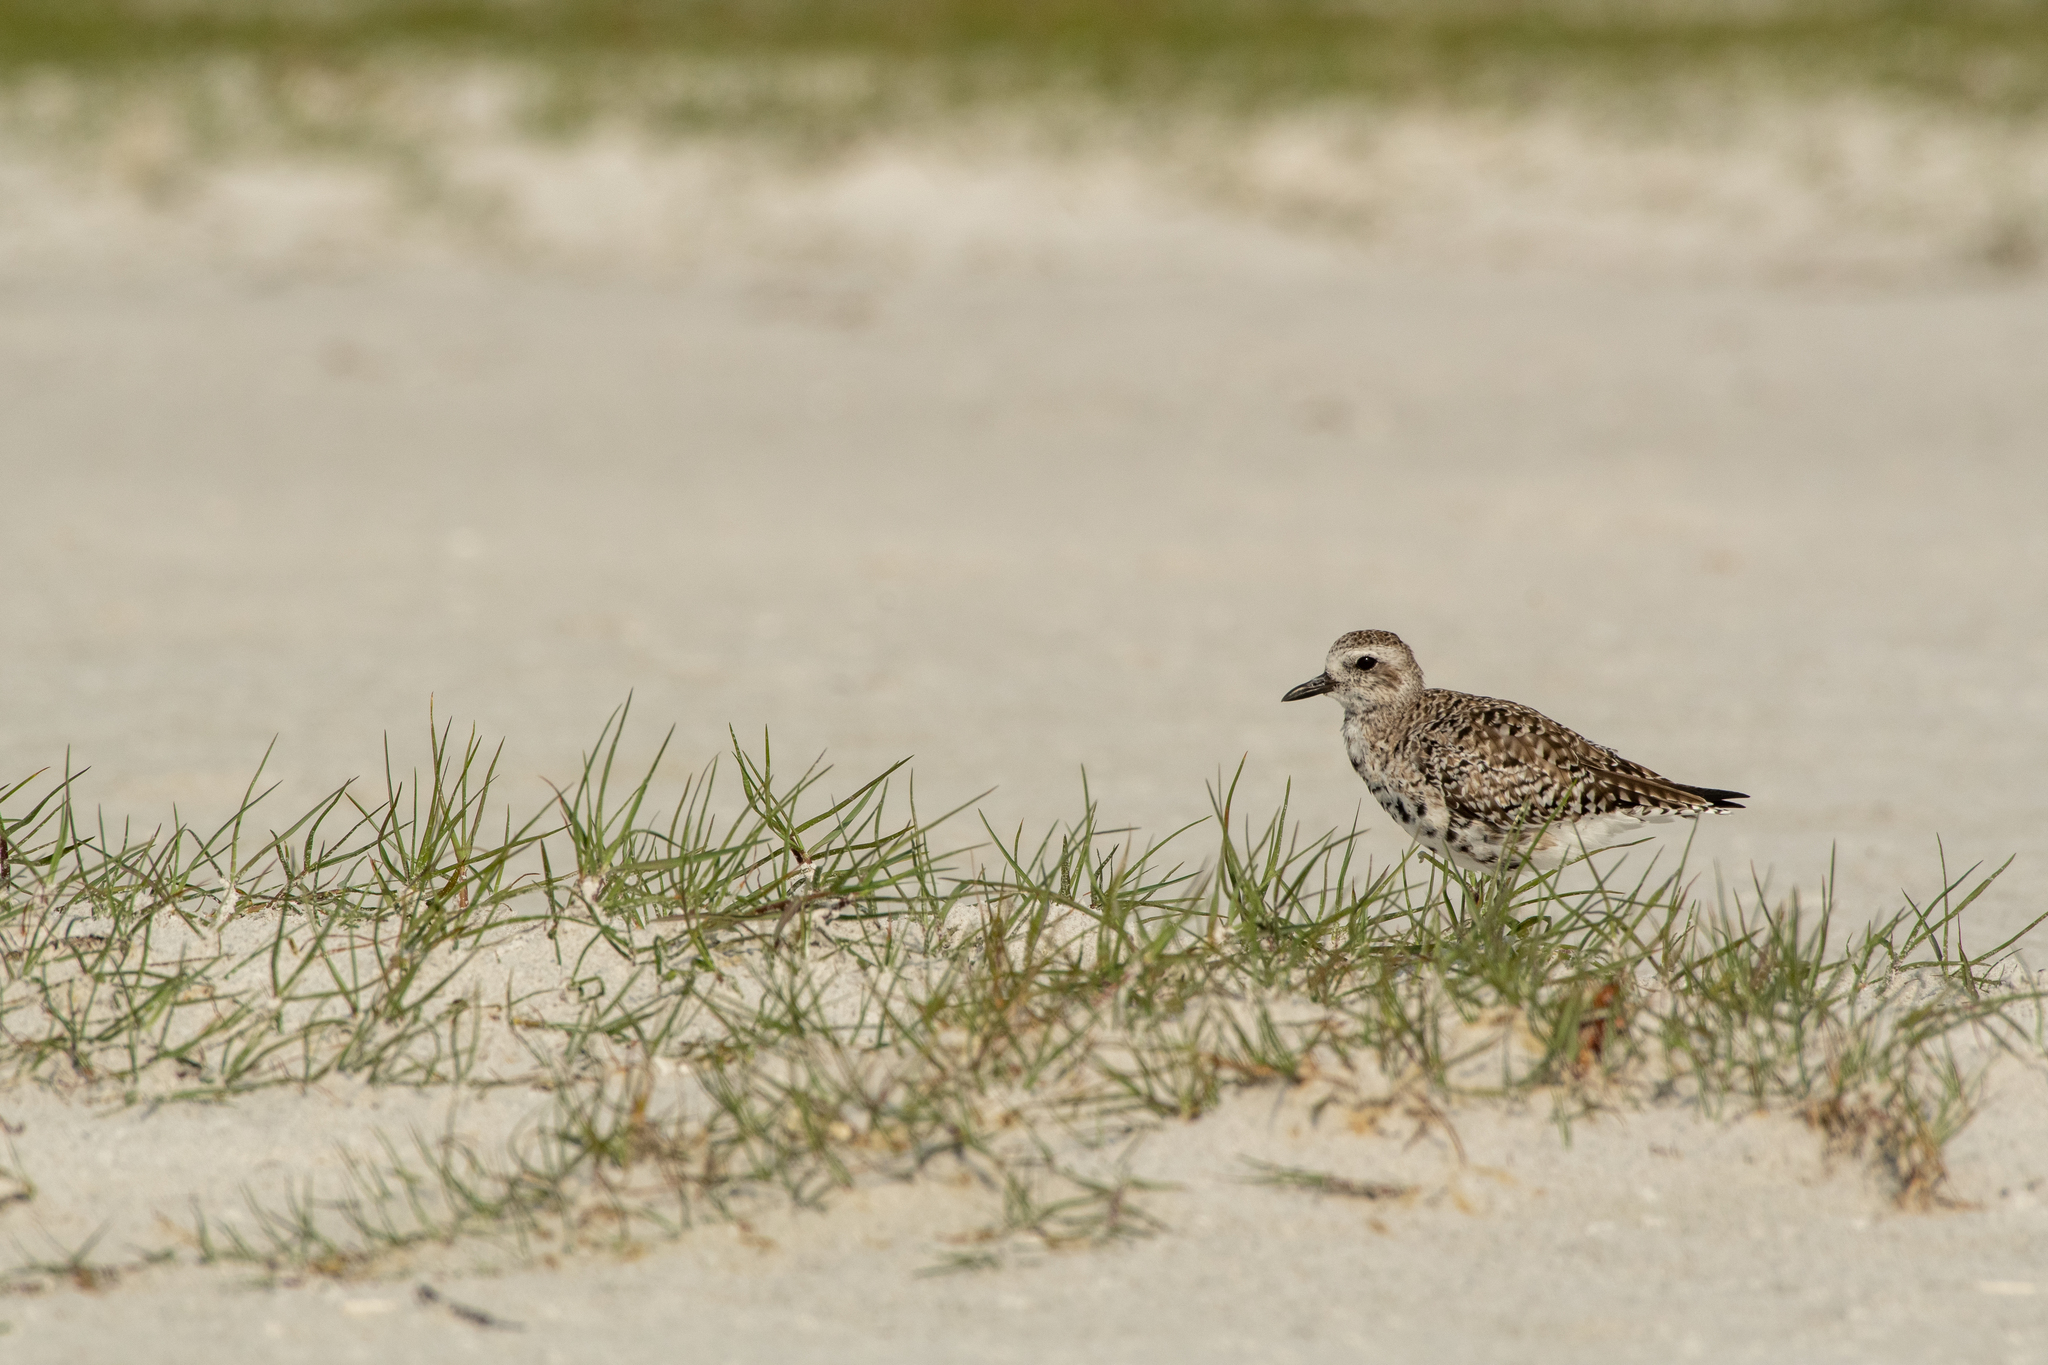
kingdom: Animalia
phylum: Chordata
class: Aves
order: Charadriiformes
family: Charadriidae
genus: Pluvialis
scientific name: Pluvialis squatarola
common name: Grey plover
